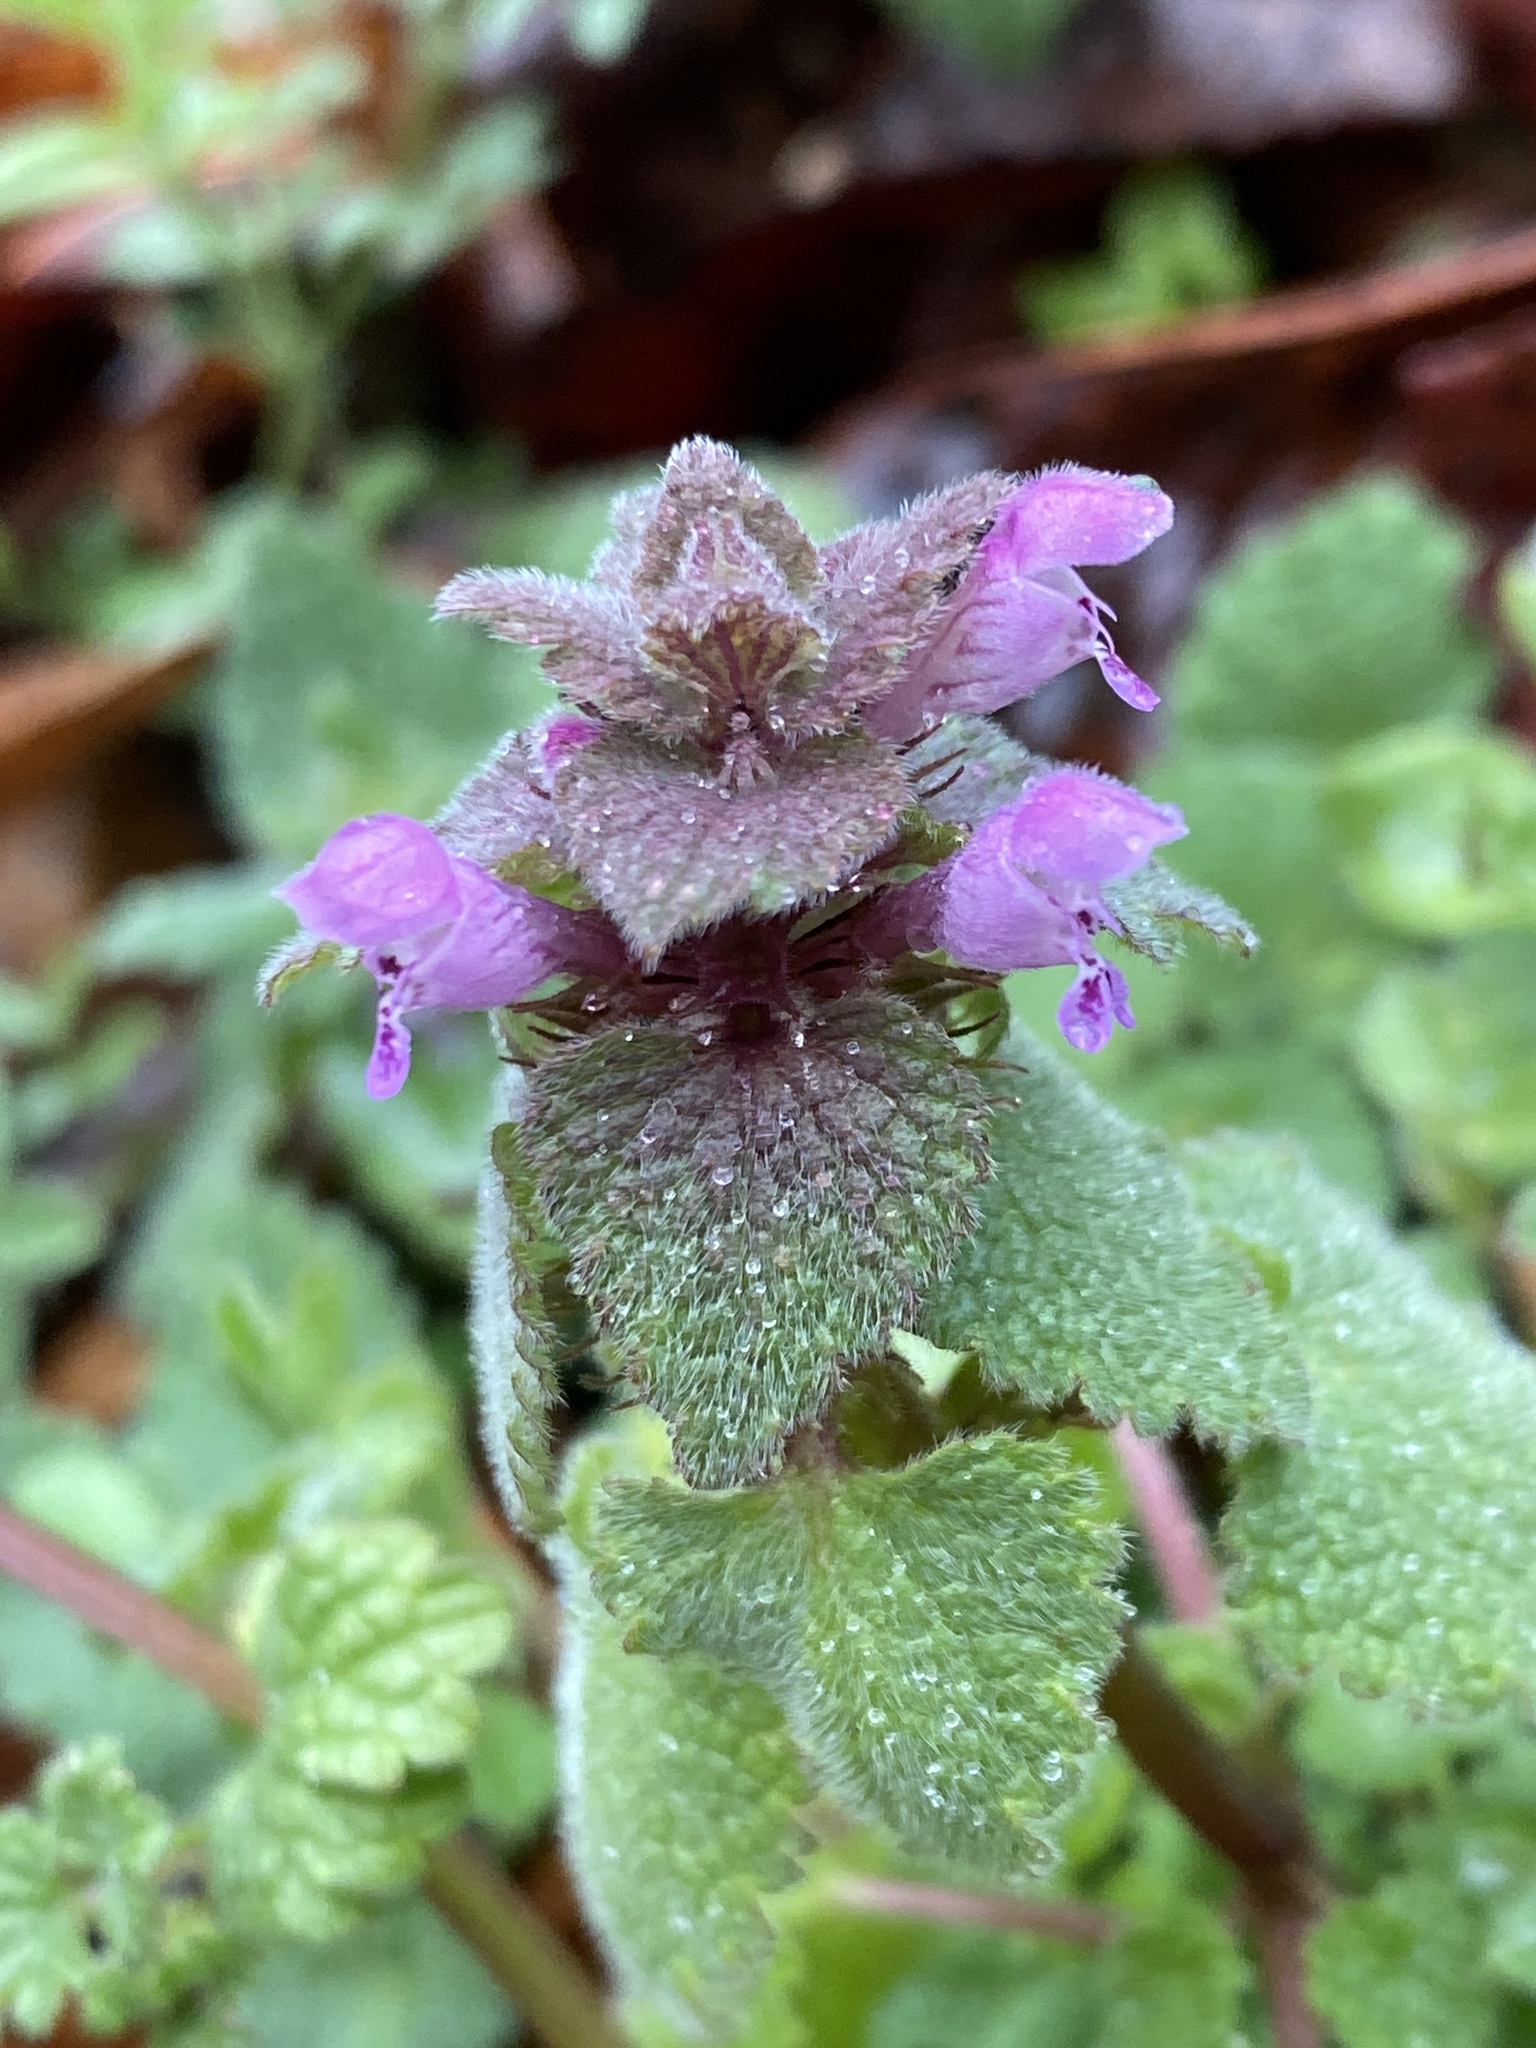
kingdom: Plantae
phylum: Tracheophyta
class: Magnoliopsida
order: Lamiales
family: Lamiaceae
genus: Lamium
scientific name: Lamium purpureum
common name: Red dead-nettle
